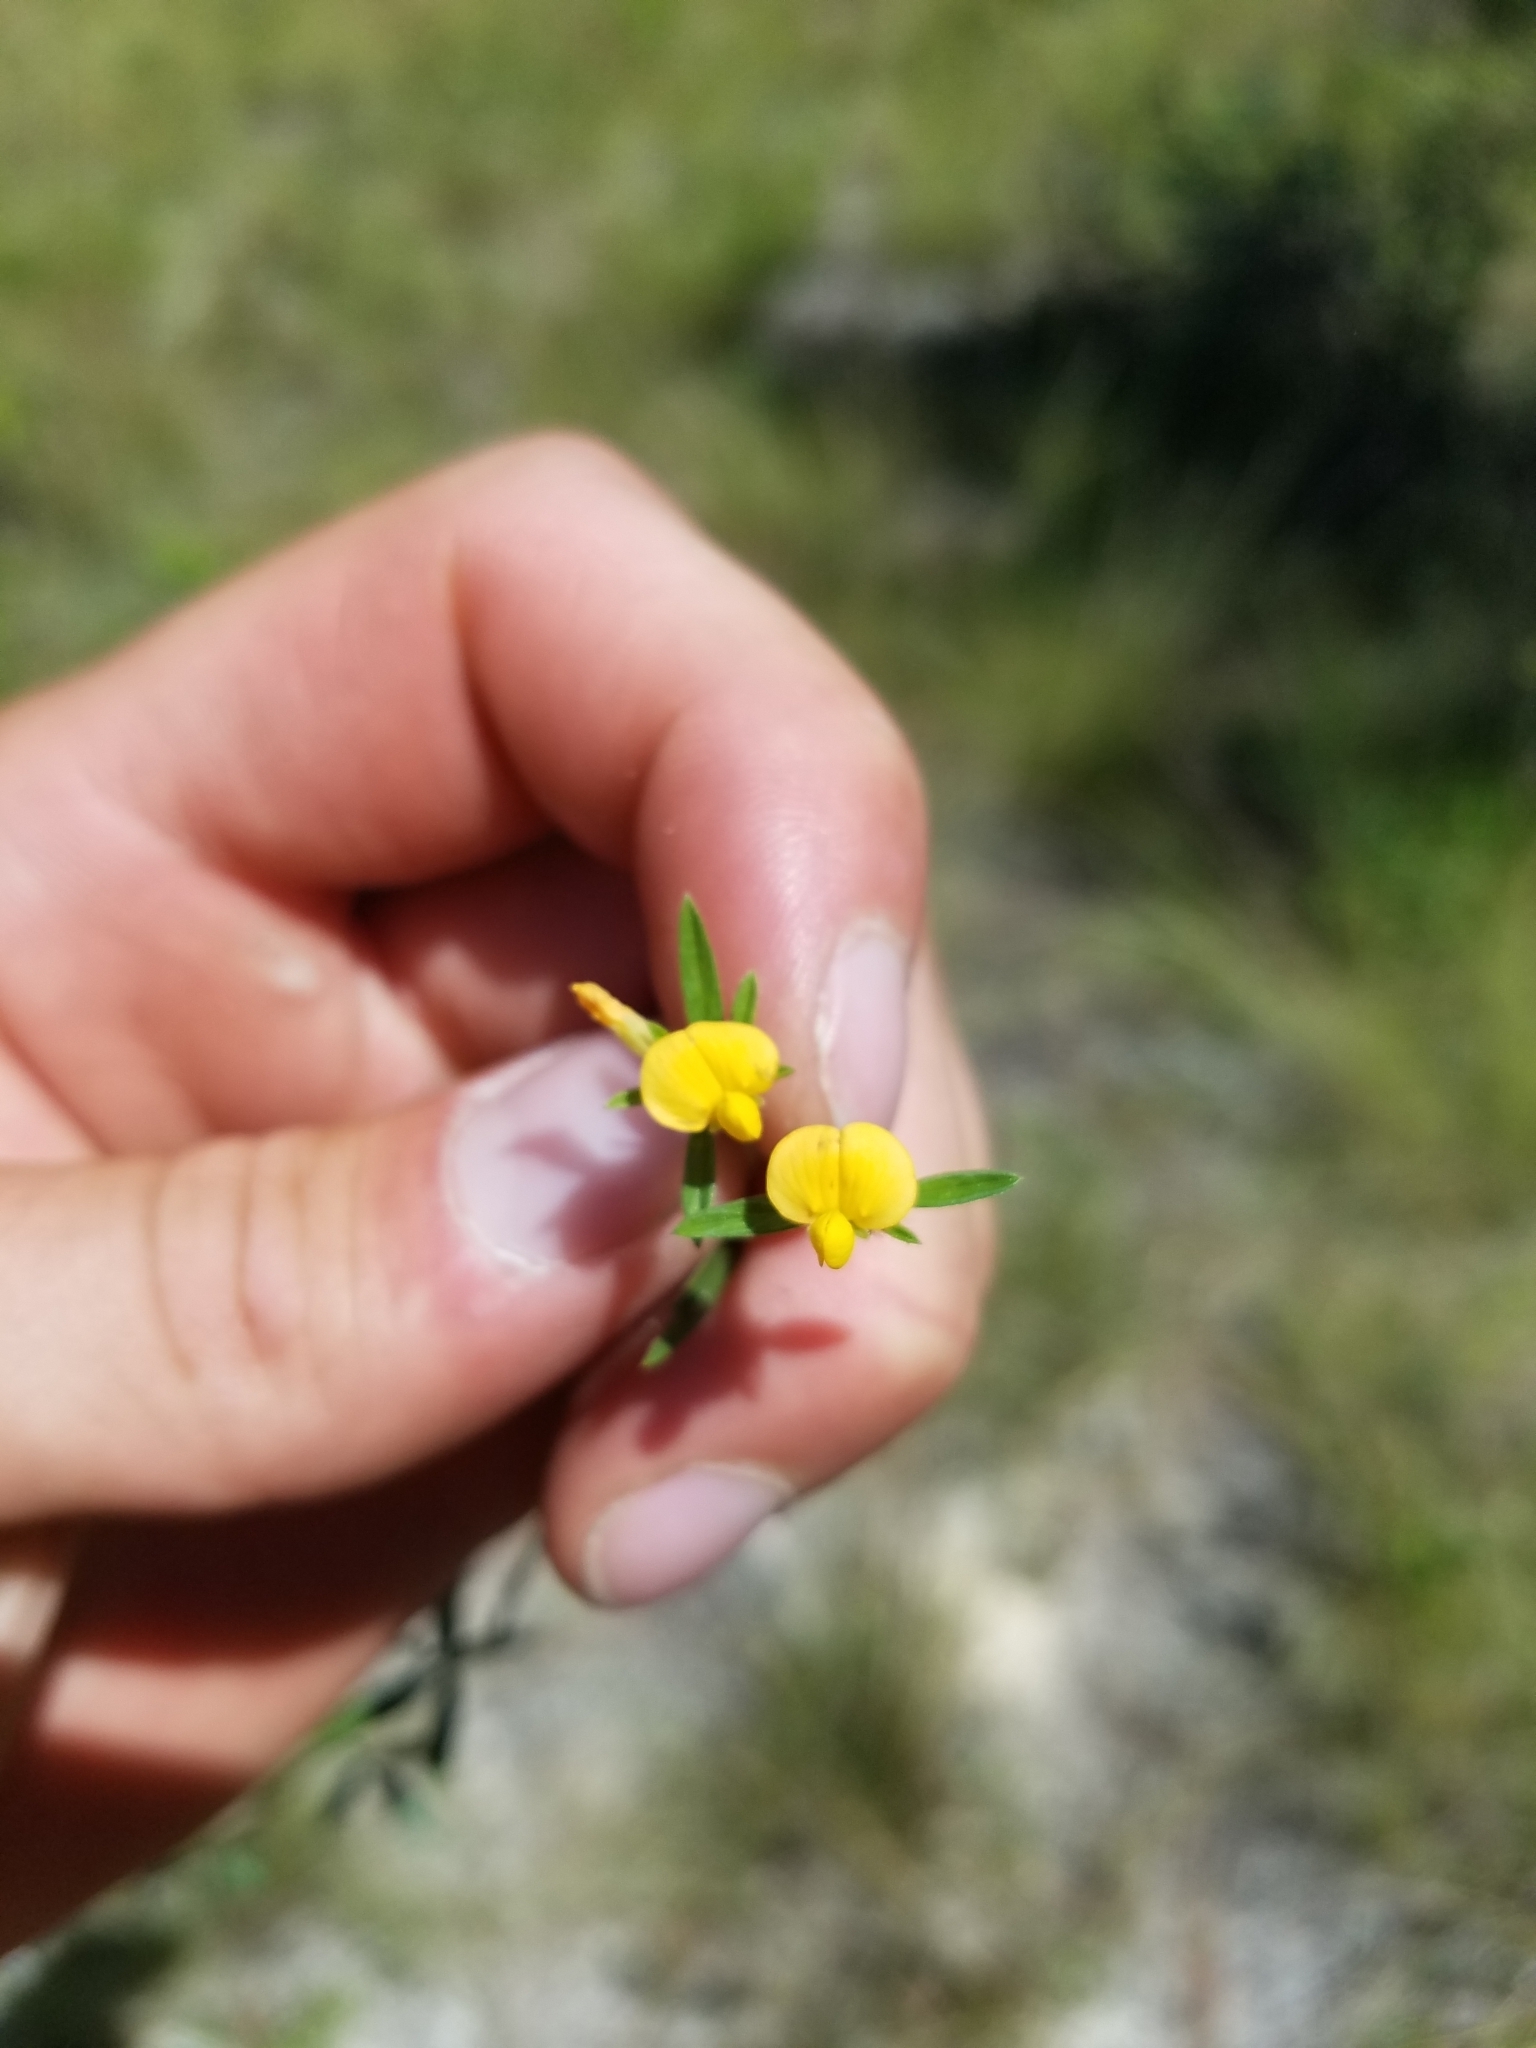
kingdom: Plantae
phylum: Tracheophyta
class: Magnoliopsida
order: Fabales
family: Fabaceae
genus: Stylosanthes
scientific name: Stylosanthes biflora
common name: Two-flower pencil-flower
